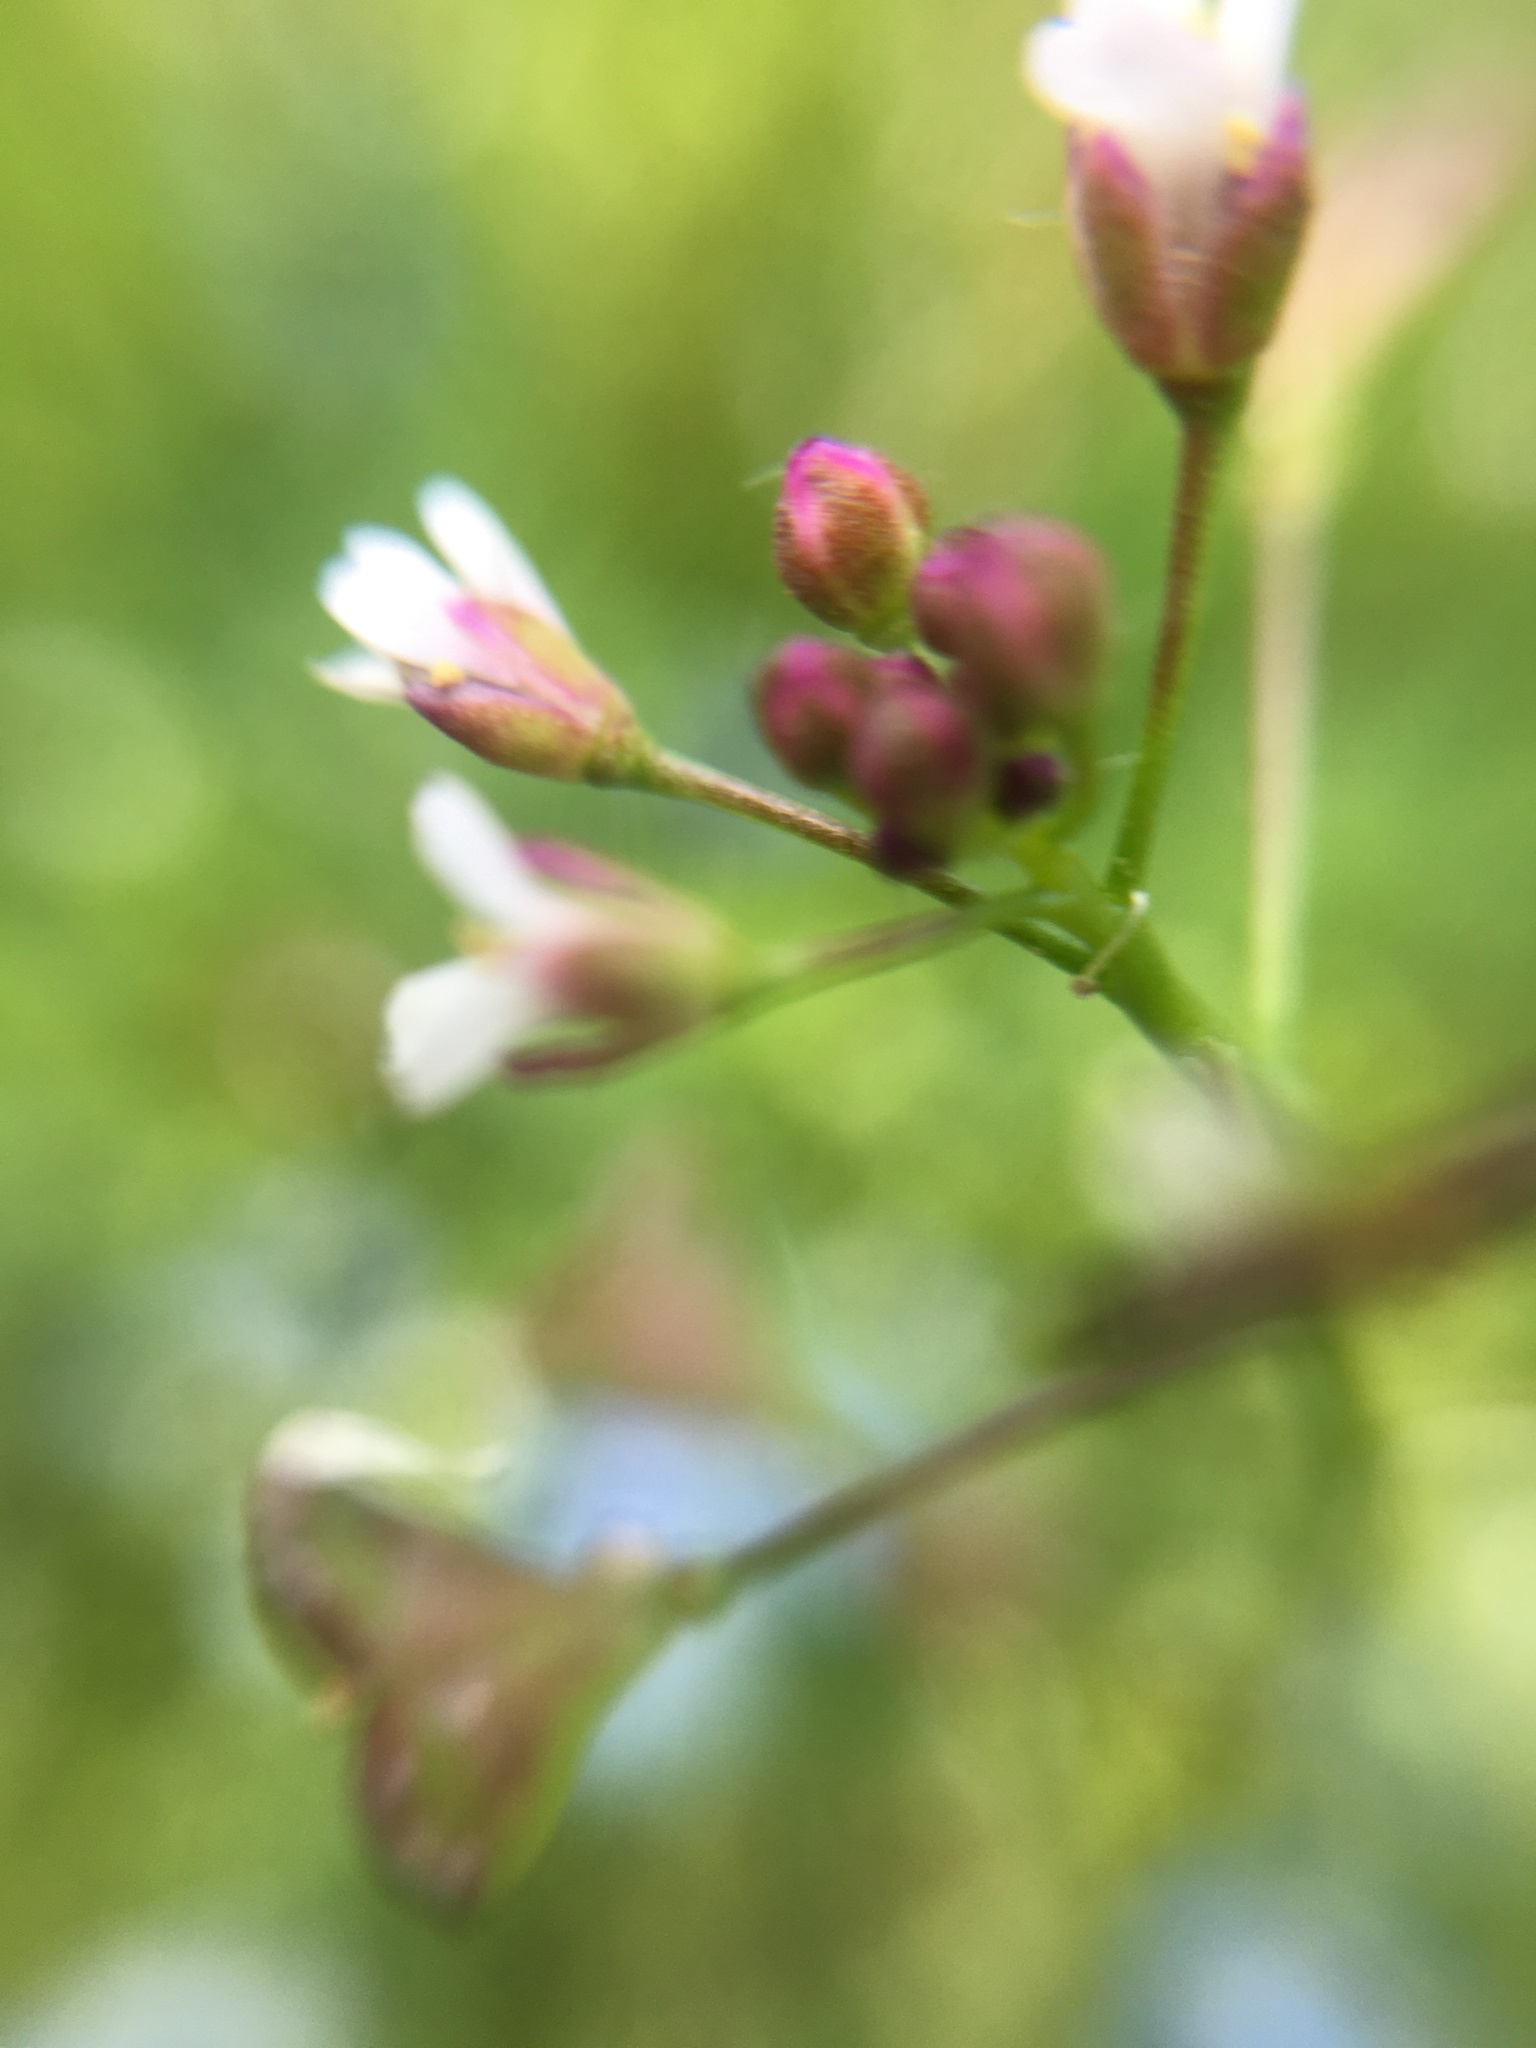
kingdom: Plantae
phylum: Tracheophyta
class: Magnoliopsida
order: Brassicales
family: Brassicaceae
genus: Capsella
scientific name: Capsella bursa-pastoris
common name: Shepherd's purse
